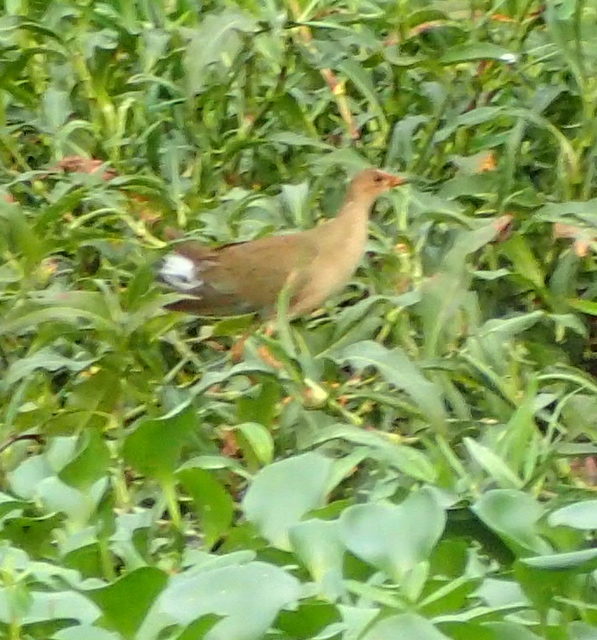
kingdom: Animalia
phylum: Chordata
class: Aves
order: Gruiformes
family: Rallidae
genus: Porphyrio
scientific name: Porphyrio martinica
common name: Purple gallinule
